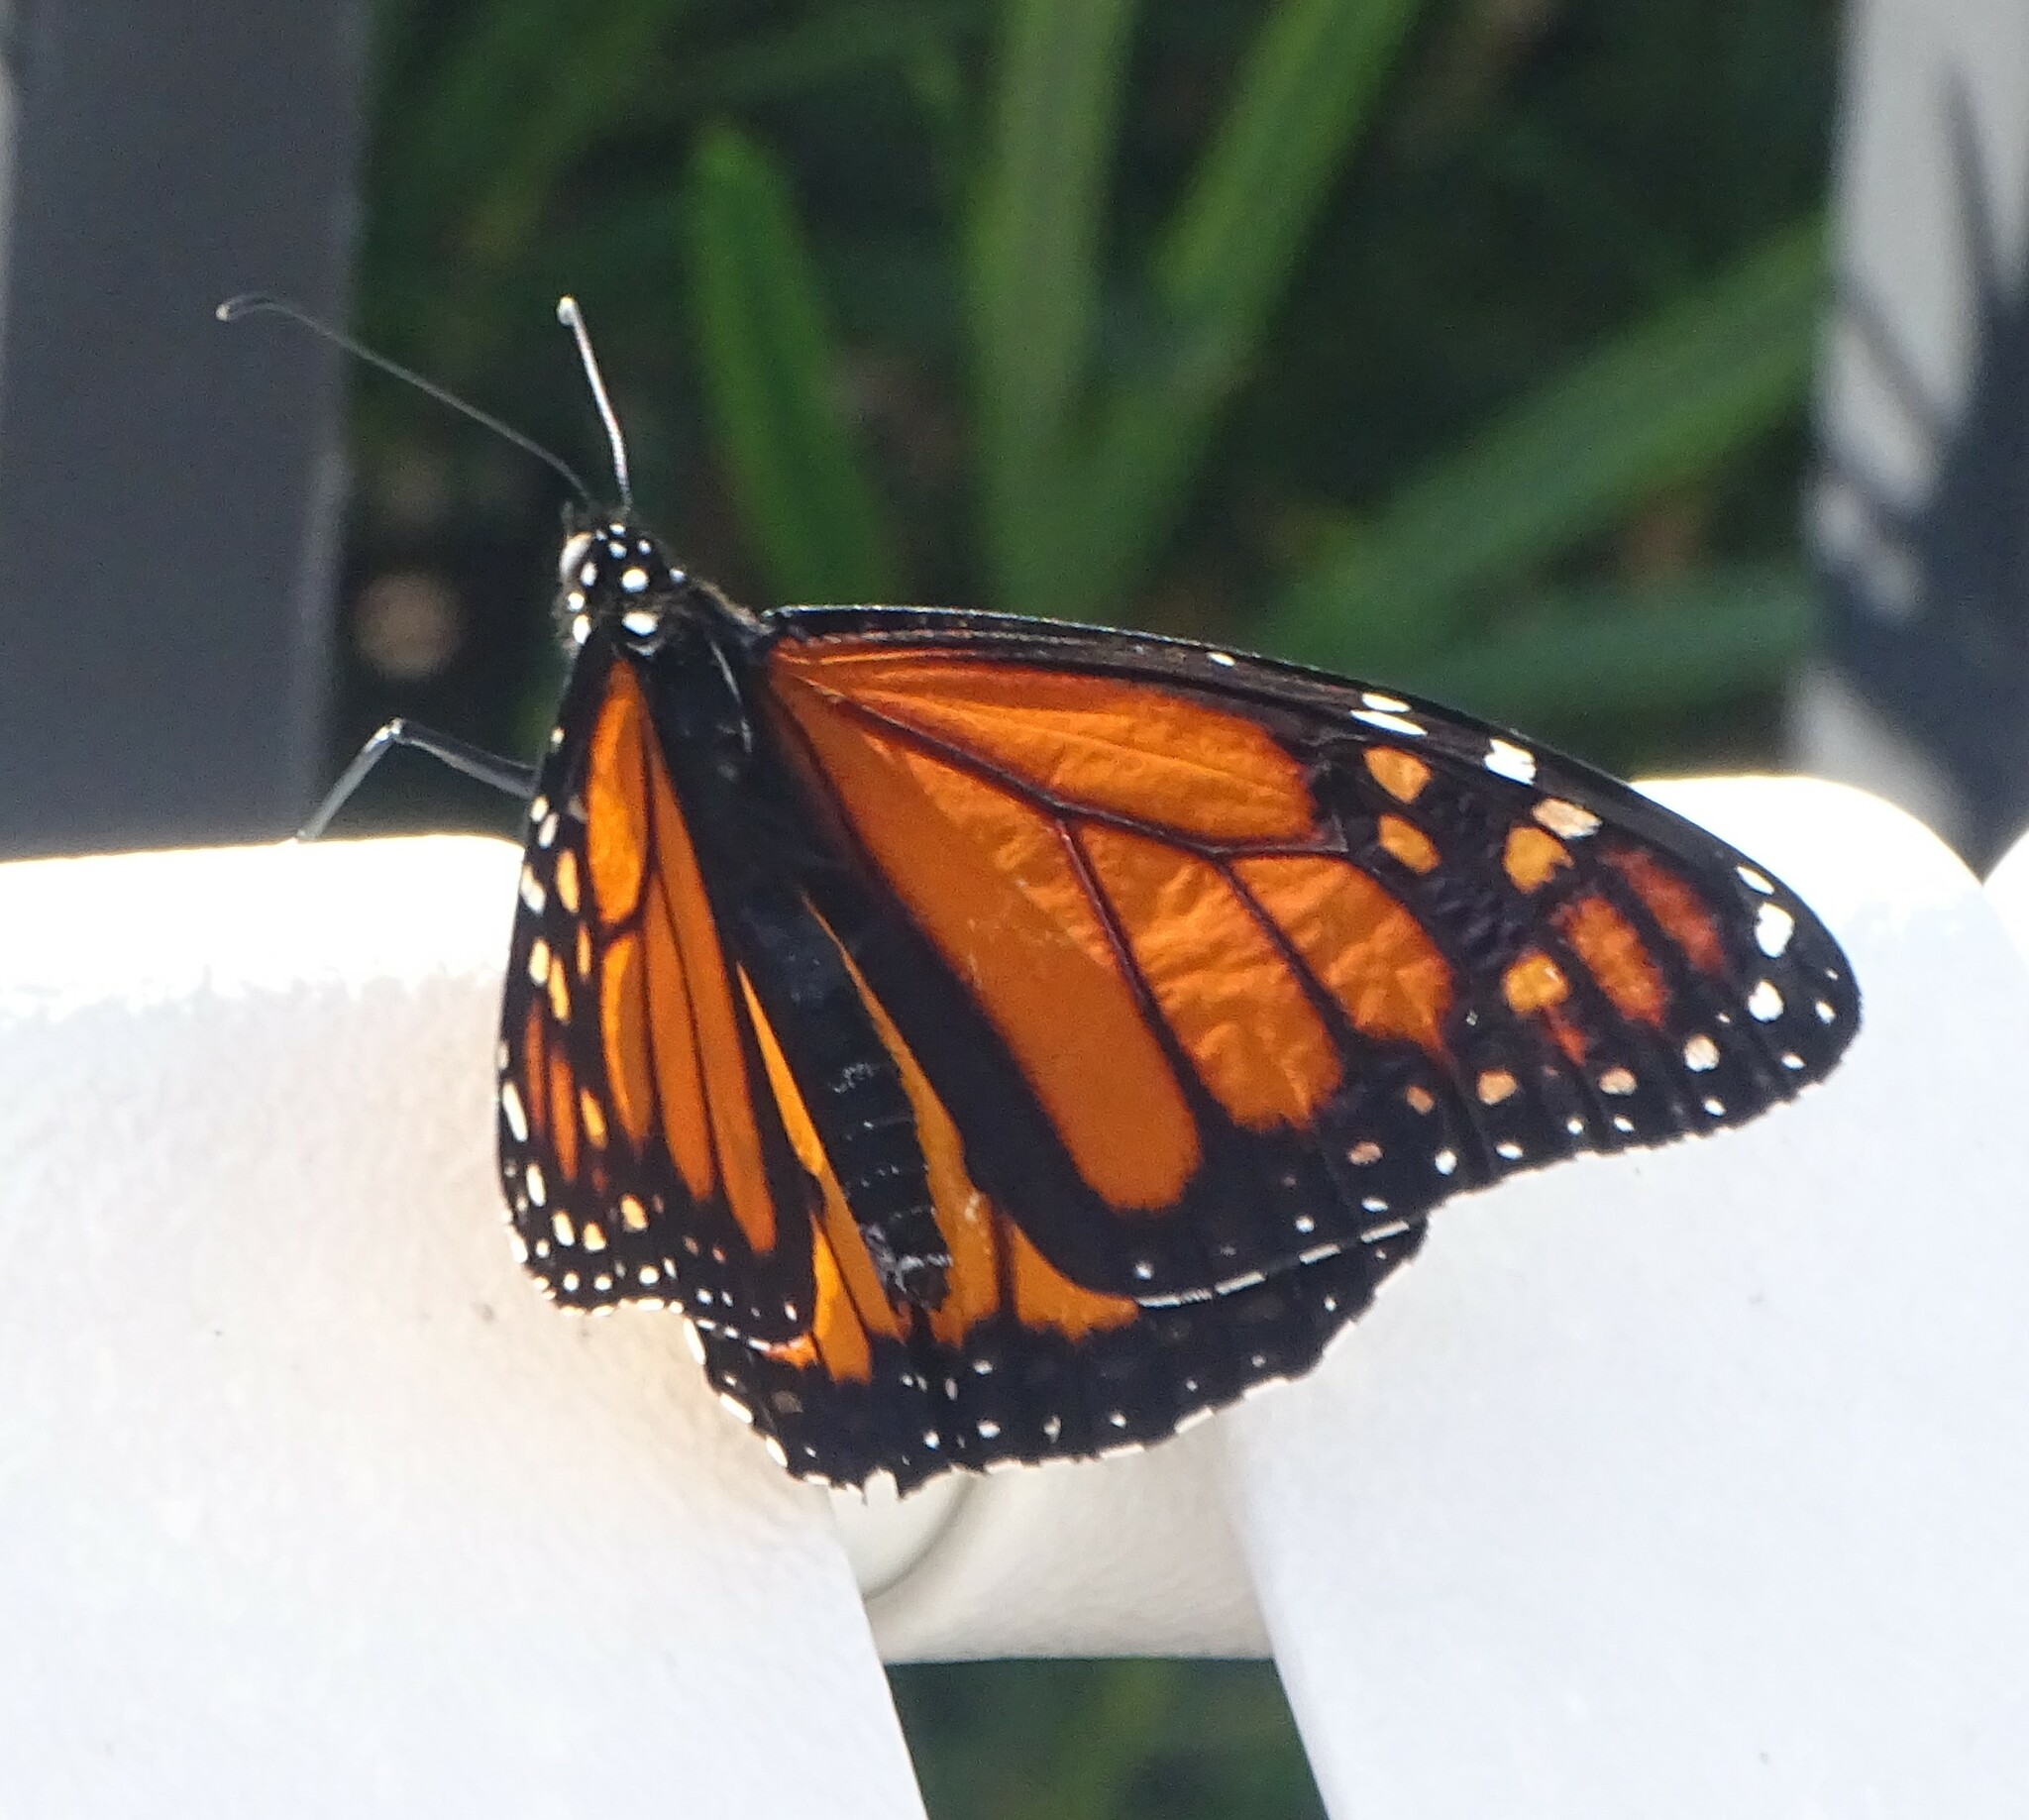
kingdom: Animalia
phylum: Arthropoda
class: Insecta
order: Lepidoptera
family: Nymphalidae
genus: Danaus
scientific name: Danaus plexippus
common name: Monarch
